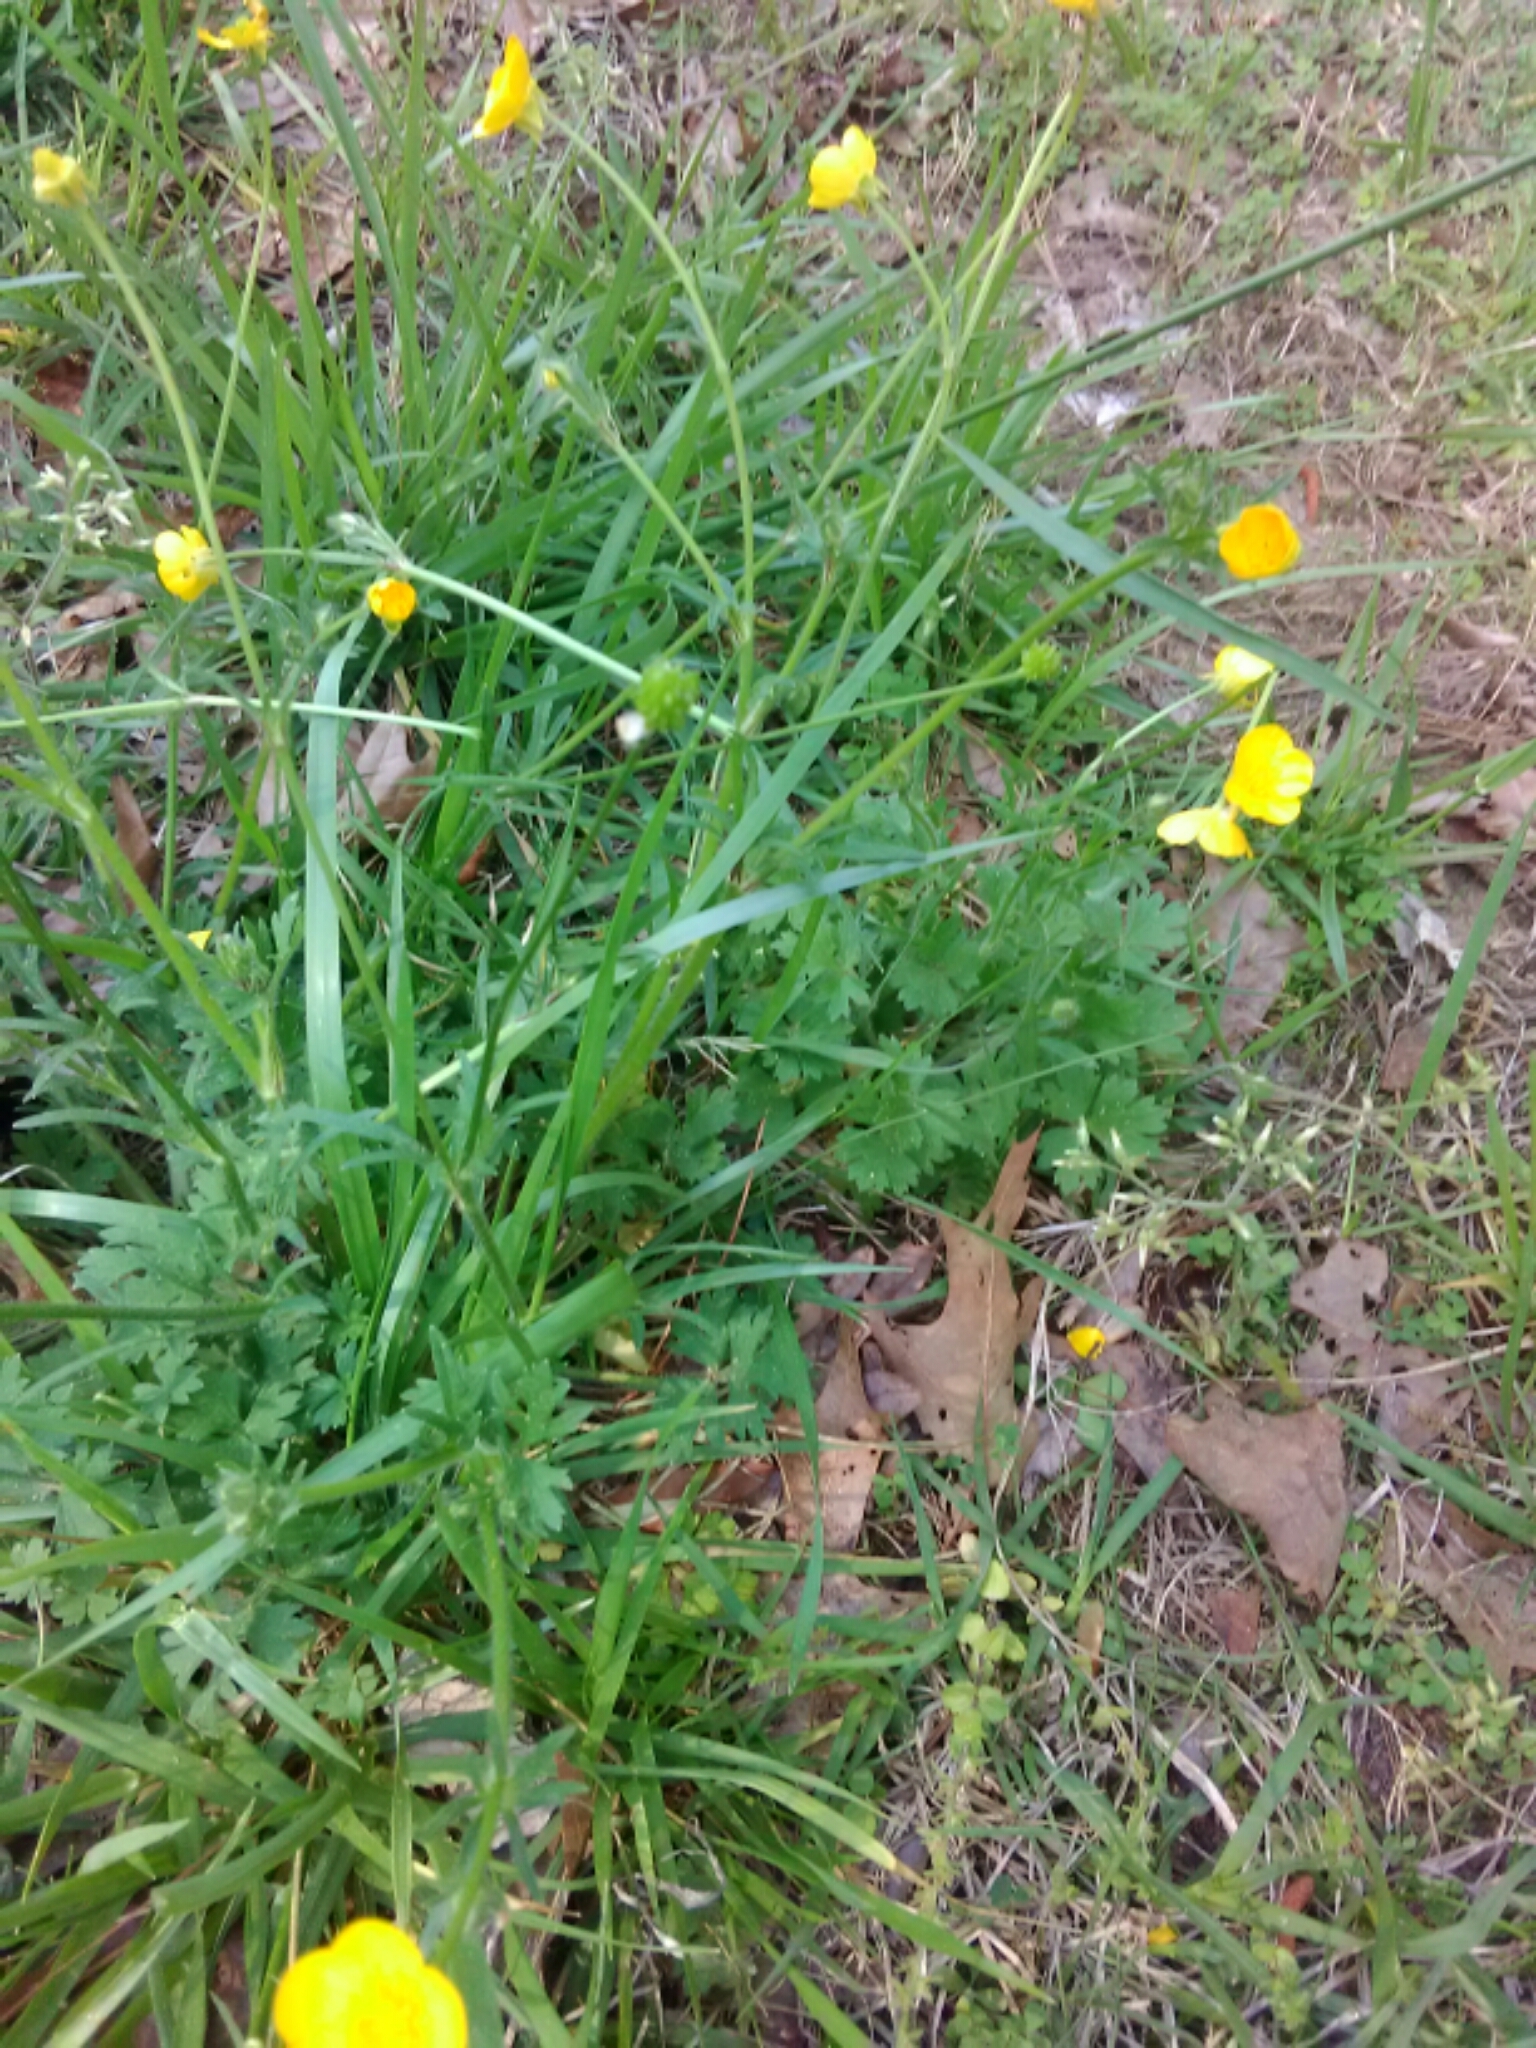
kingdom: Plantae
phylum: Tracheophyta
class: Magnoliopsida
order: Ranunculales
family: Ranunculaceae
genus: Ranunculus
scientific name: Ranunculus acris
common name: Meadow buttercup
